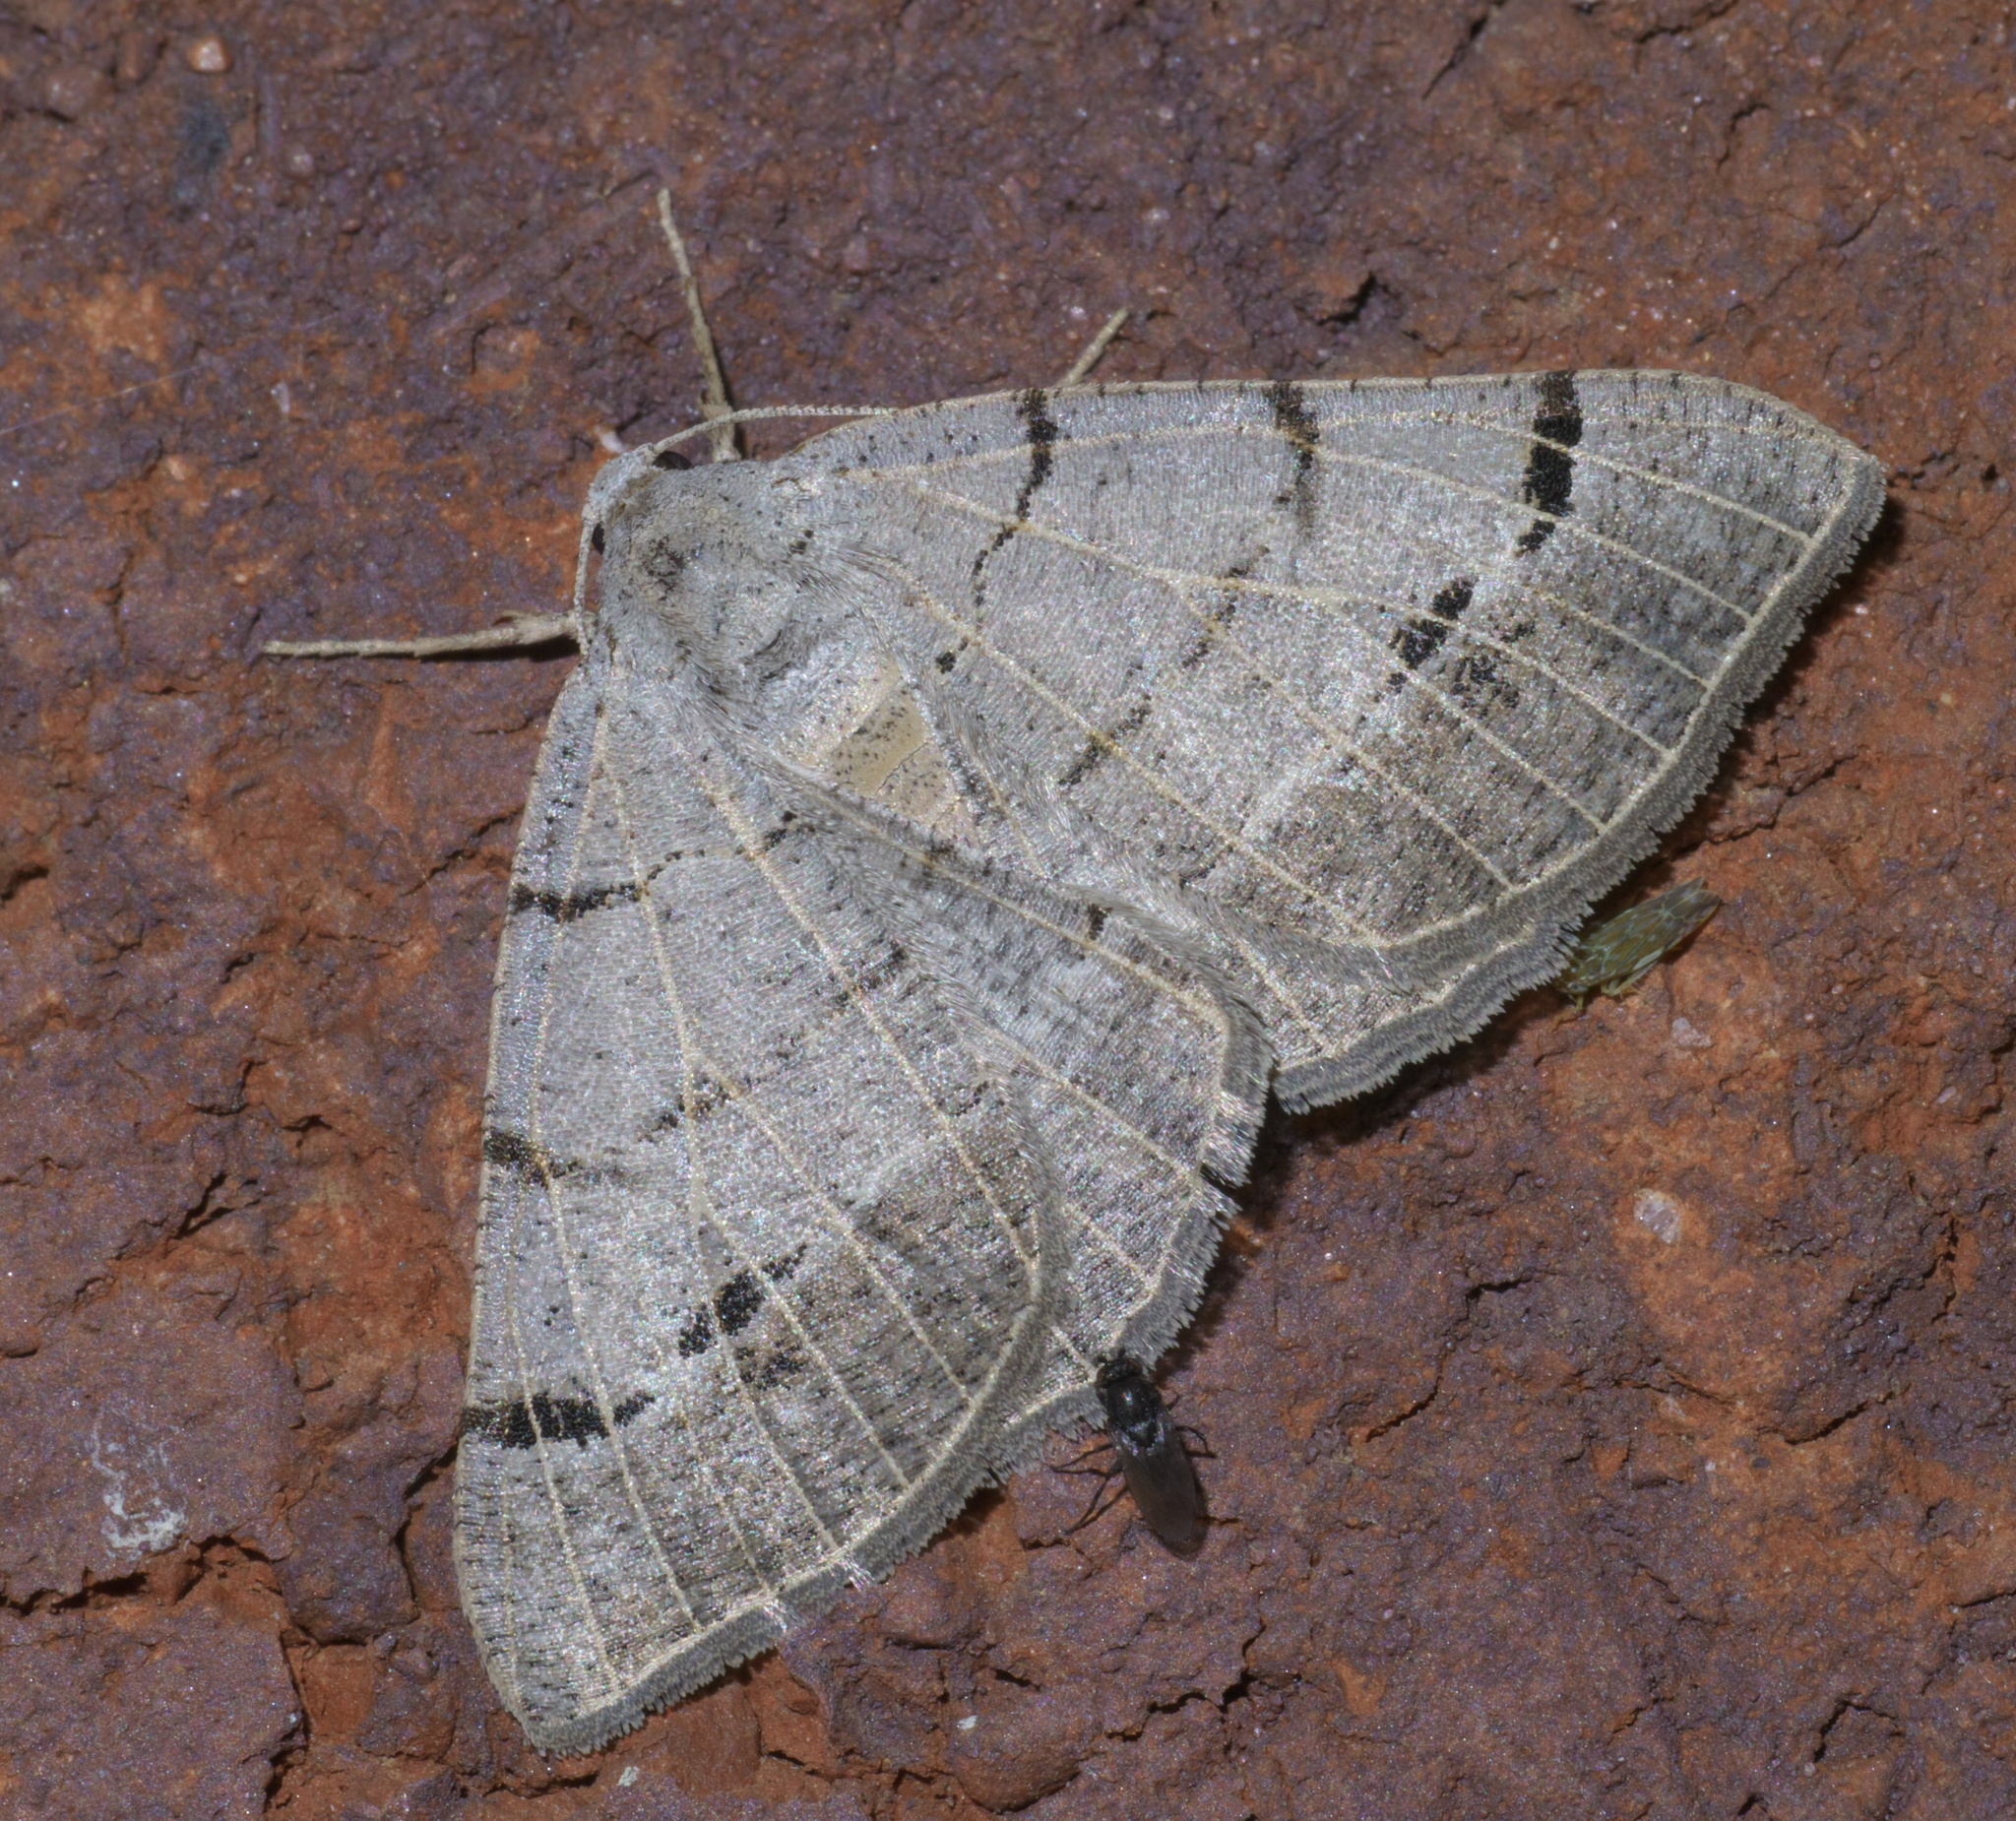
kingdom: Animalia
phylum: Arthropoda
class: Insecta
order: Lepidoptera
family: Geometridae
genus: Isturgia
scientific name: Isturgia dislocaria
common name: Pale-viened enconista
